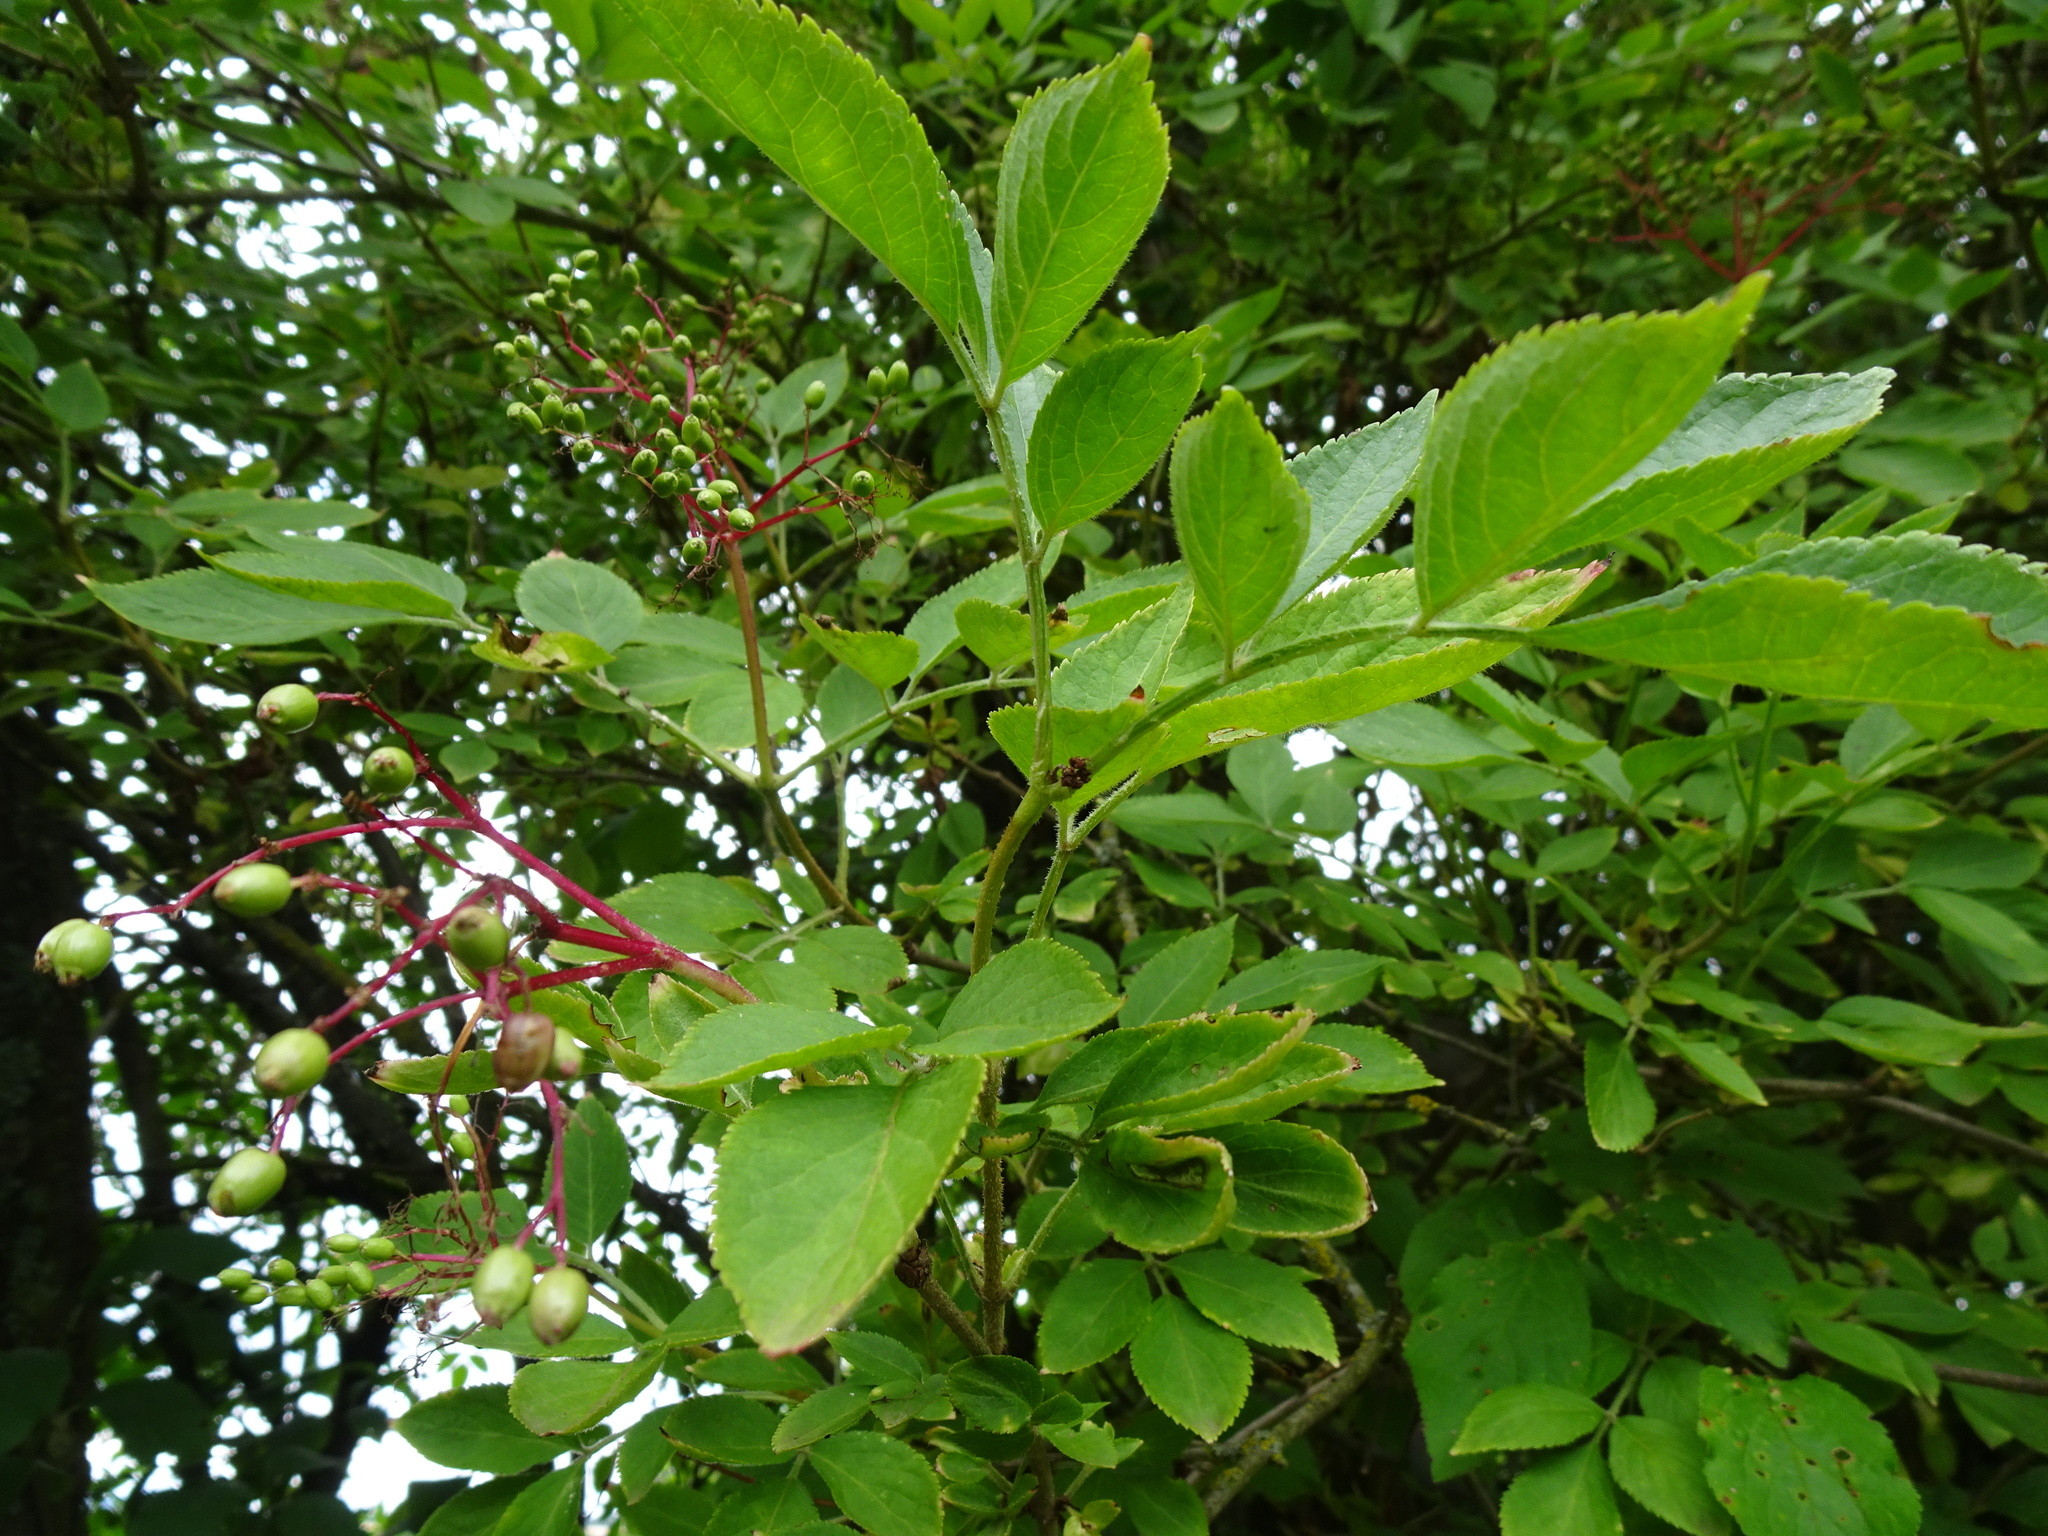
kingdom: Plantae
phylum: Tracheophyta
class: Magnoliopsida
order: Dipsacales
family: Viburnaceae
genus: Sambucus
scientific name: Sambucus nigra
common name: Elder
